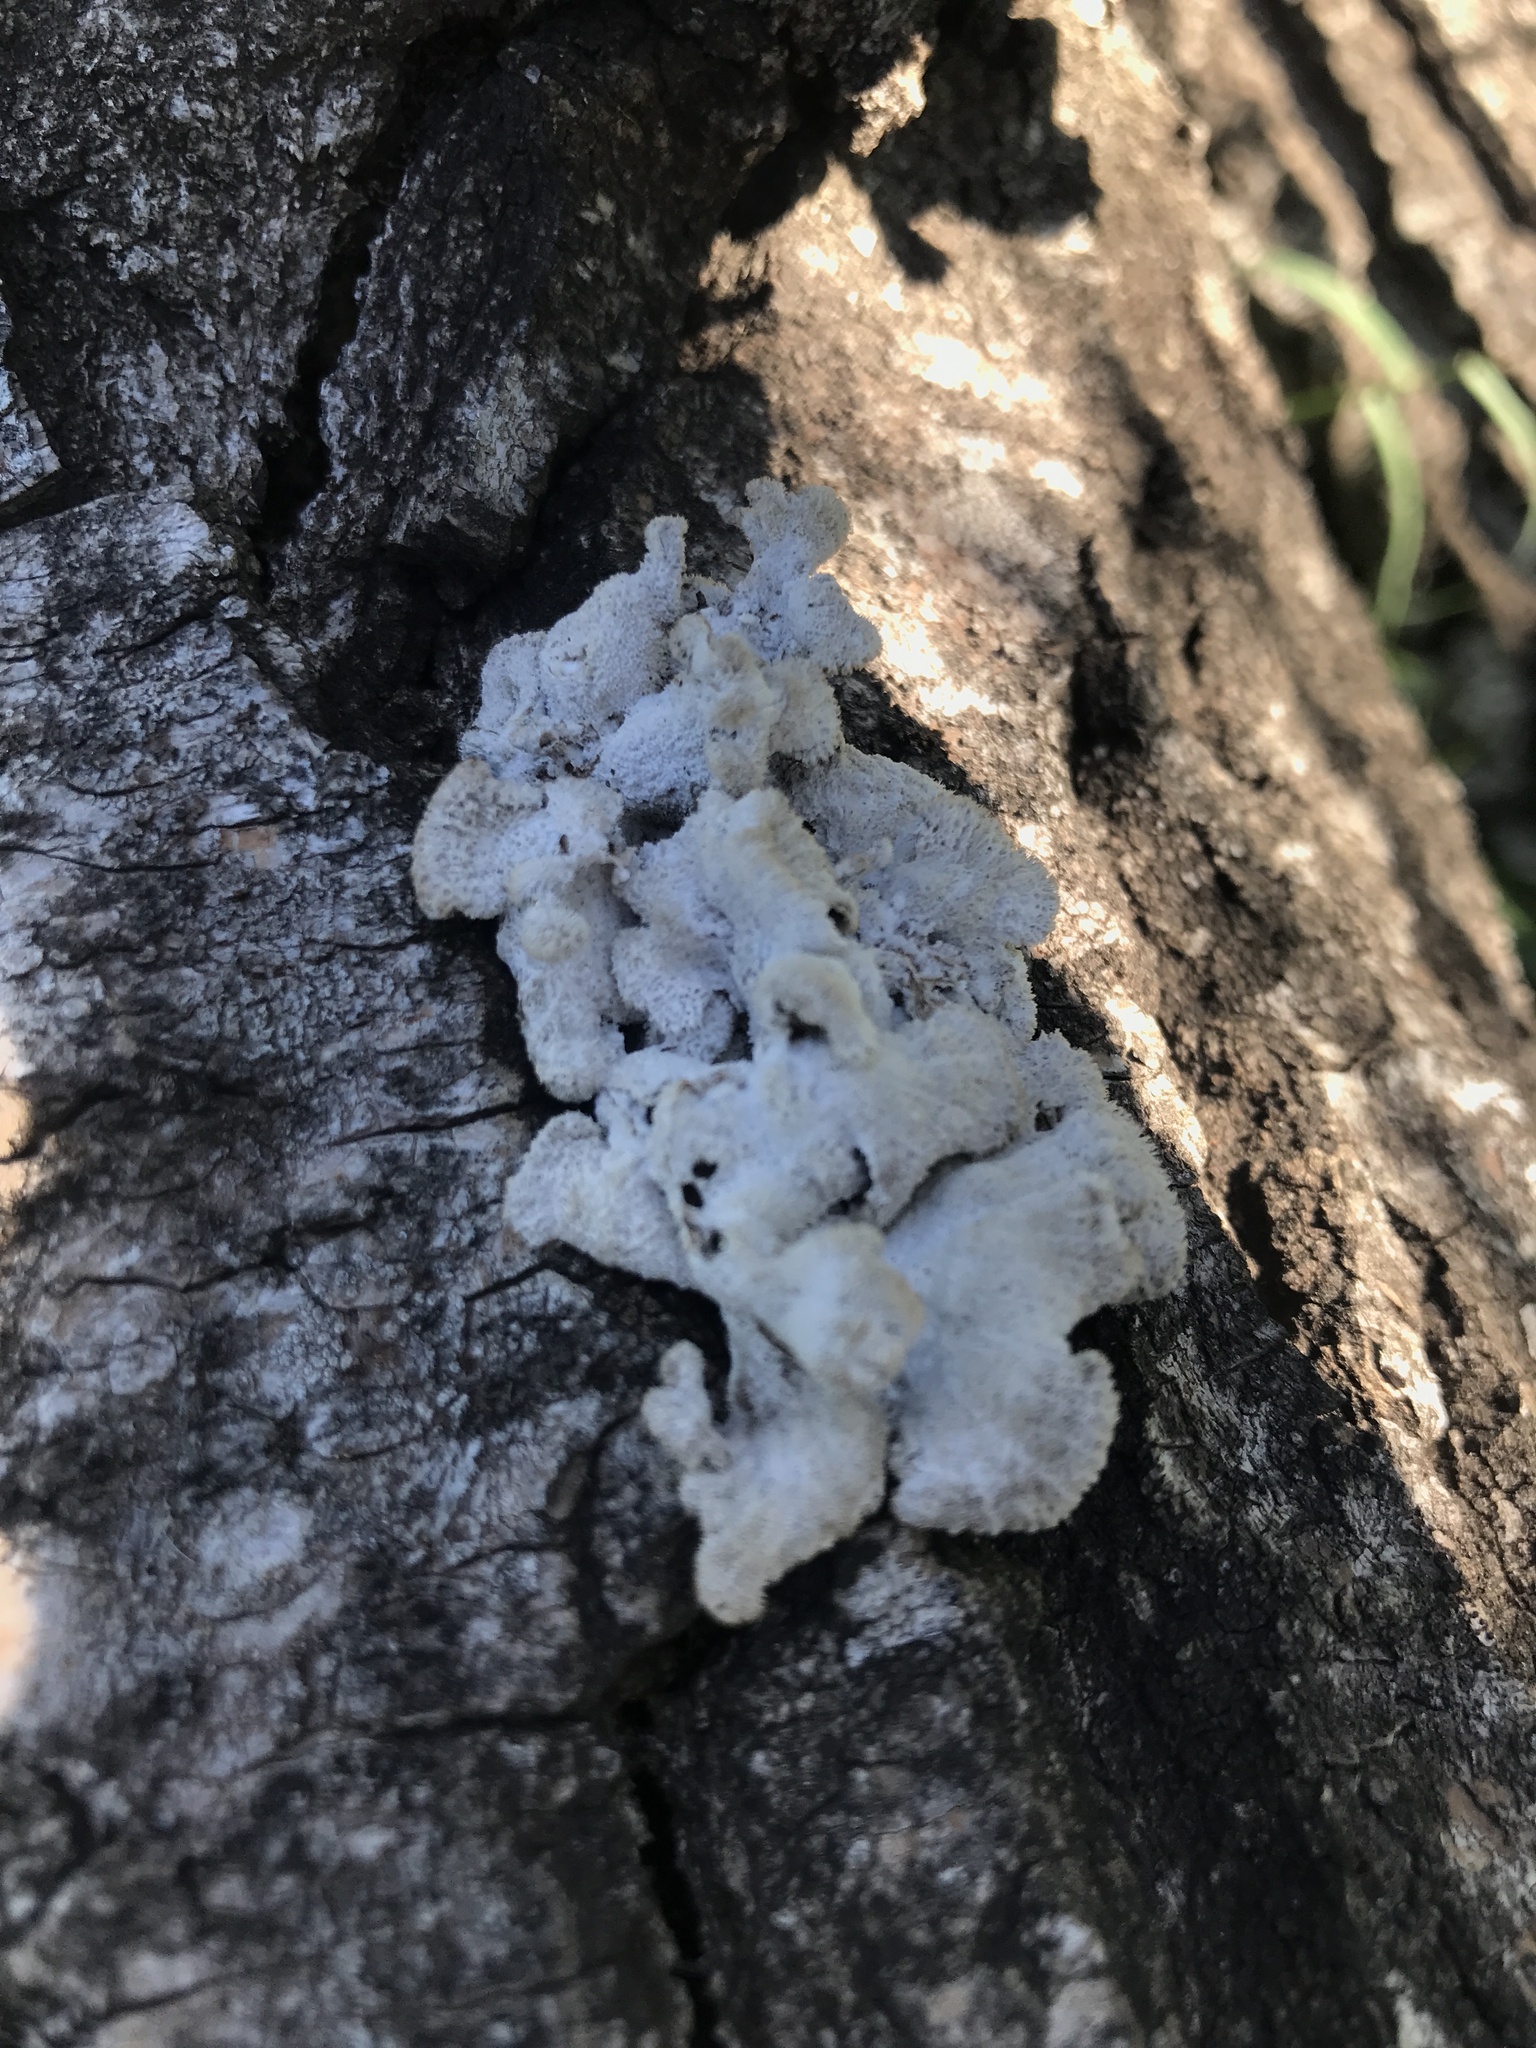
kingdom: Fungi
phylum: Basidiomycota
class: Agaricomycetes
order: Agaricales
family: Schizophyllaceae
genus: Schizophyllum
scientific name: Schizophyllum commune
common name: Common porecrust
